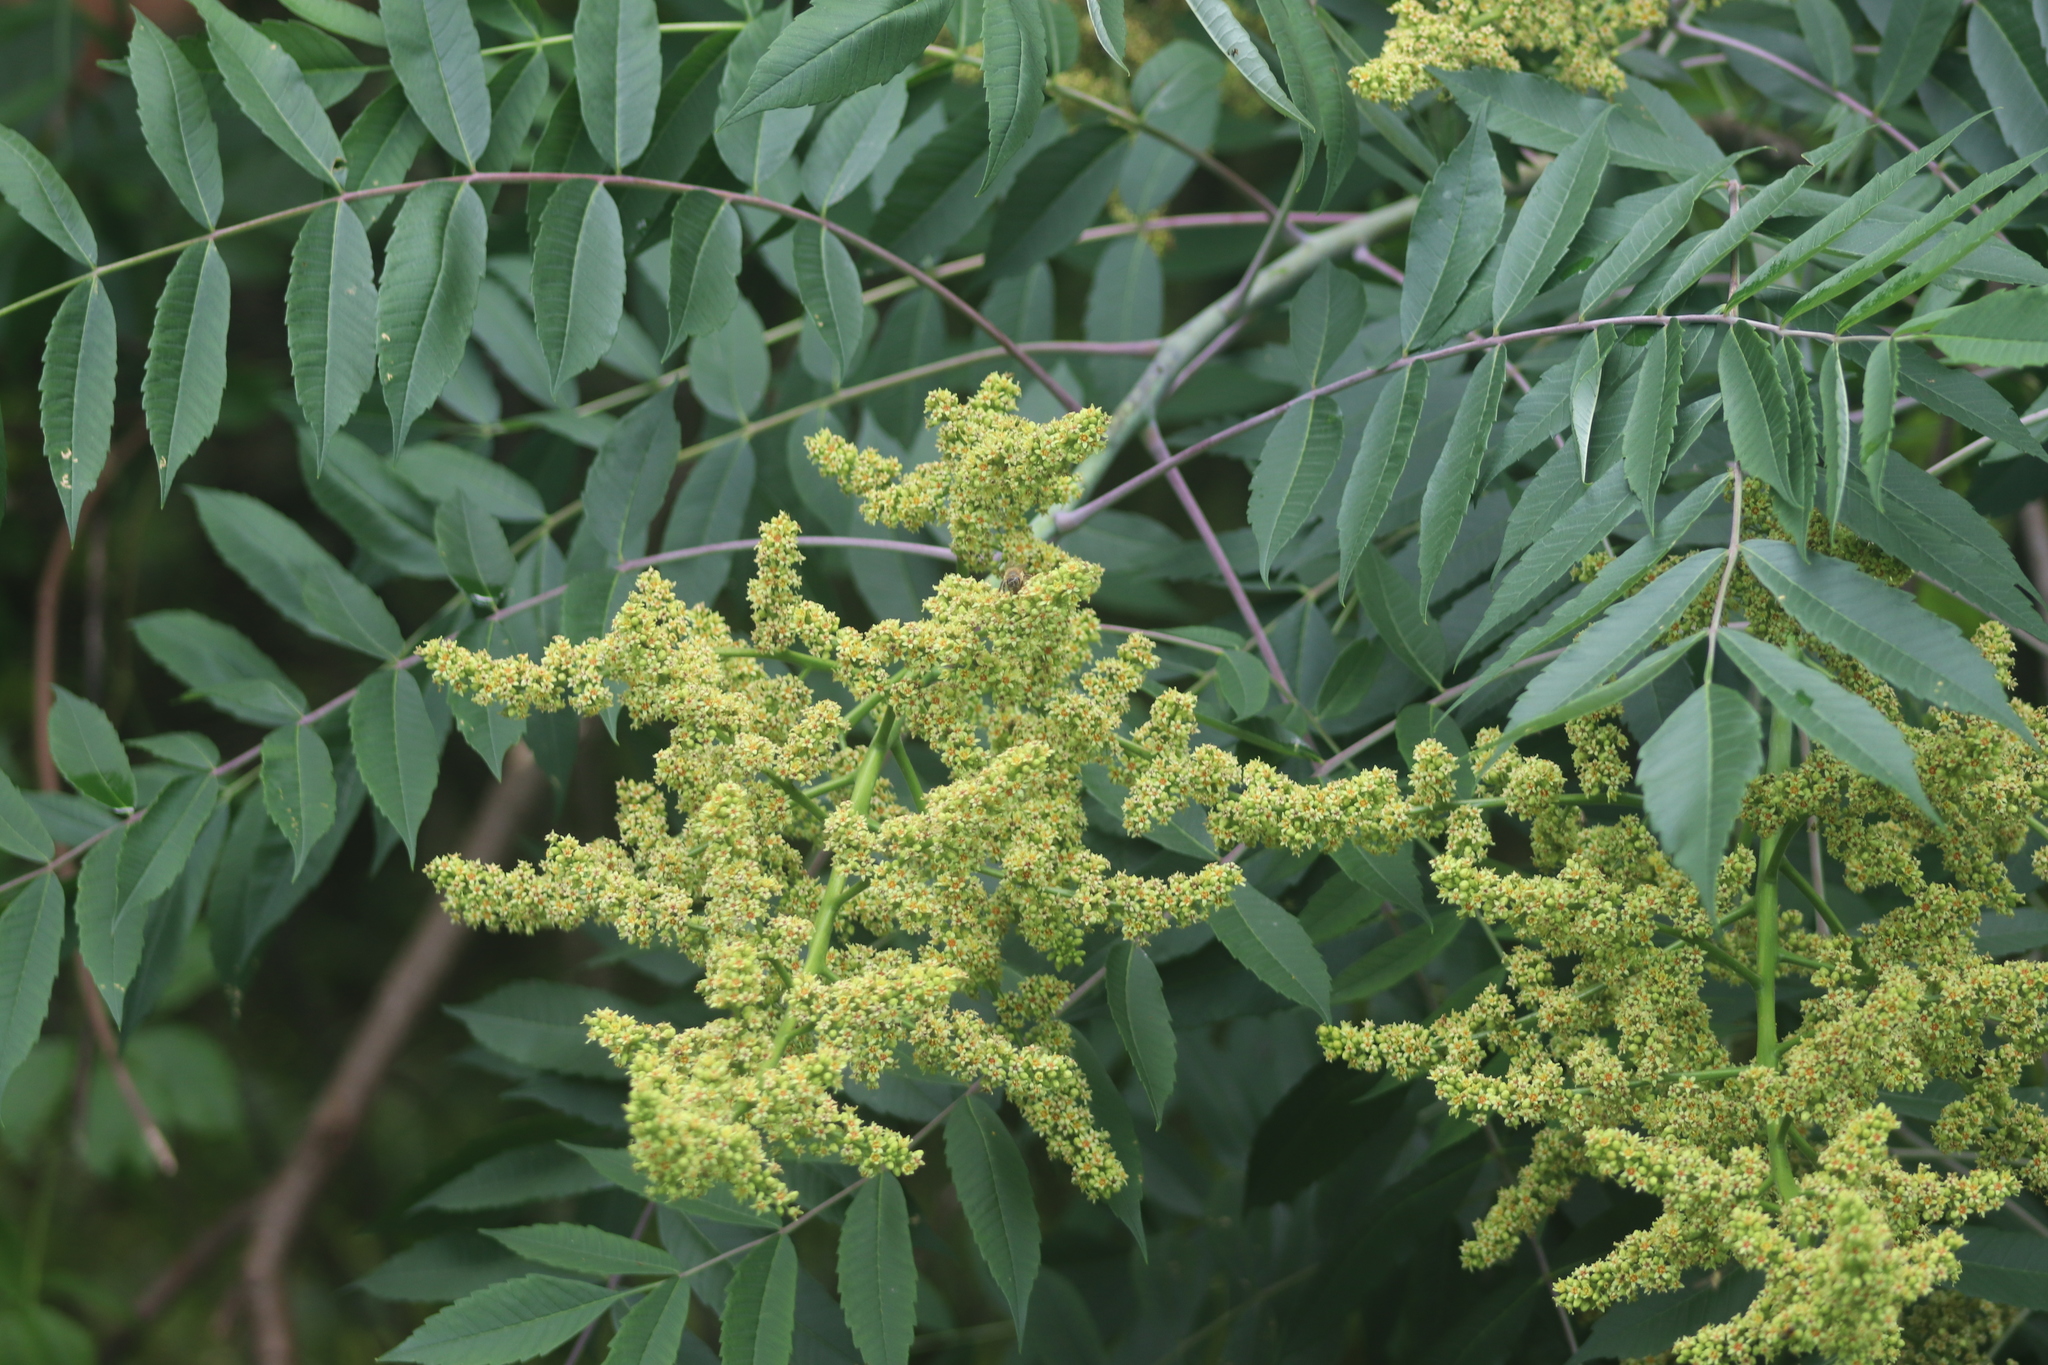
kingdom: Plantae
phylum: Tracheophyta
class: Magnoliopsida
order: Sapindales
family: Anacardiaceae
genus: Rhus
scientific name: Rhus glabra
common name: Scarlet sumac
